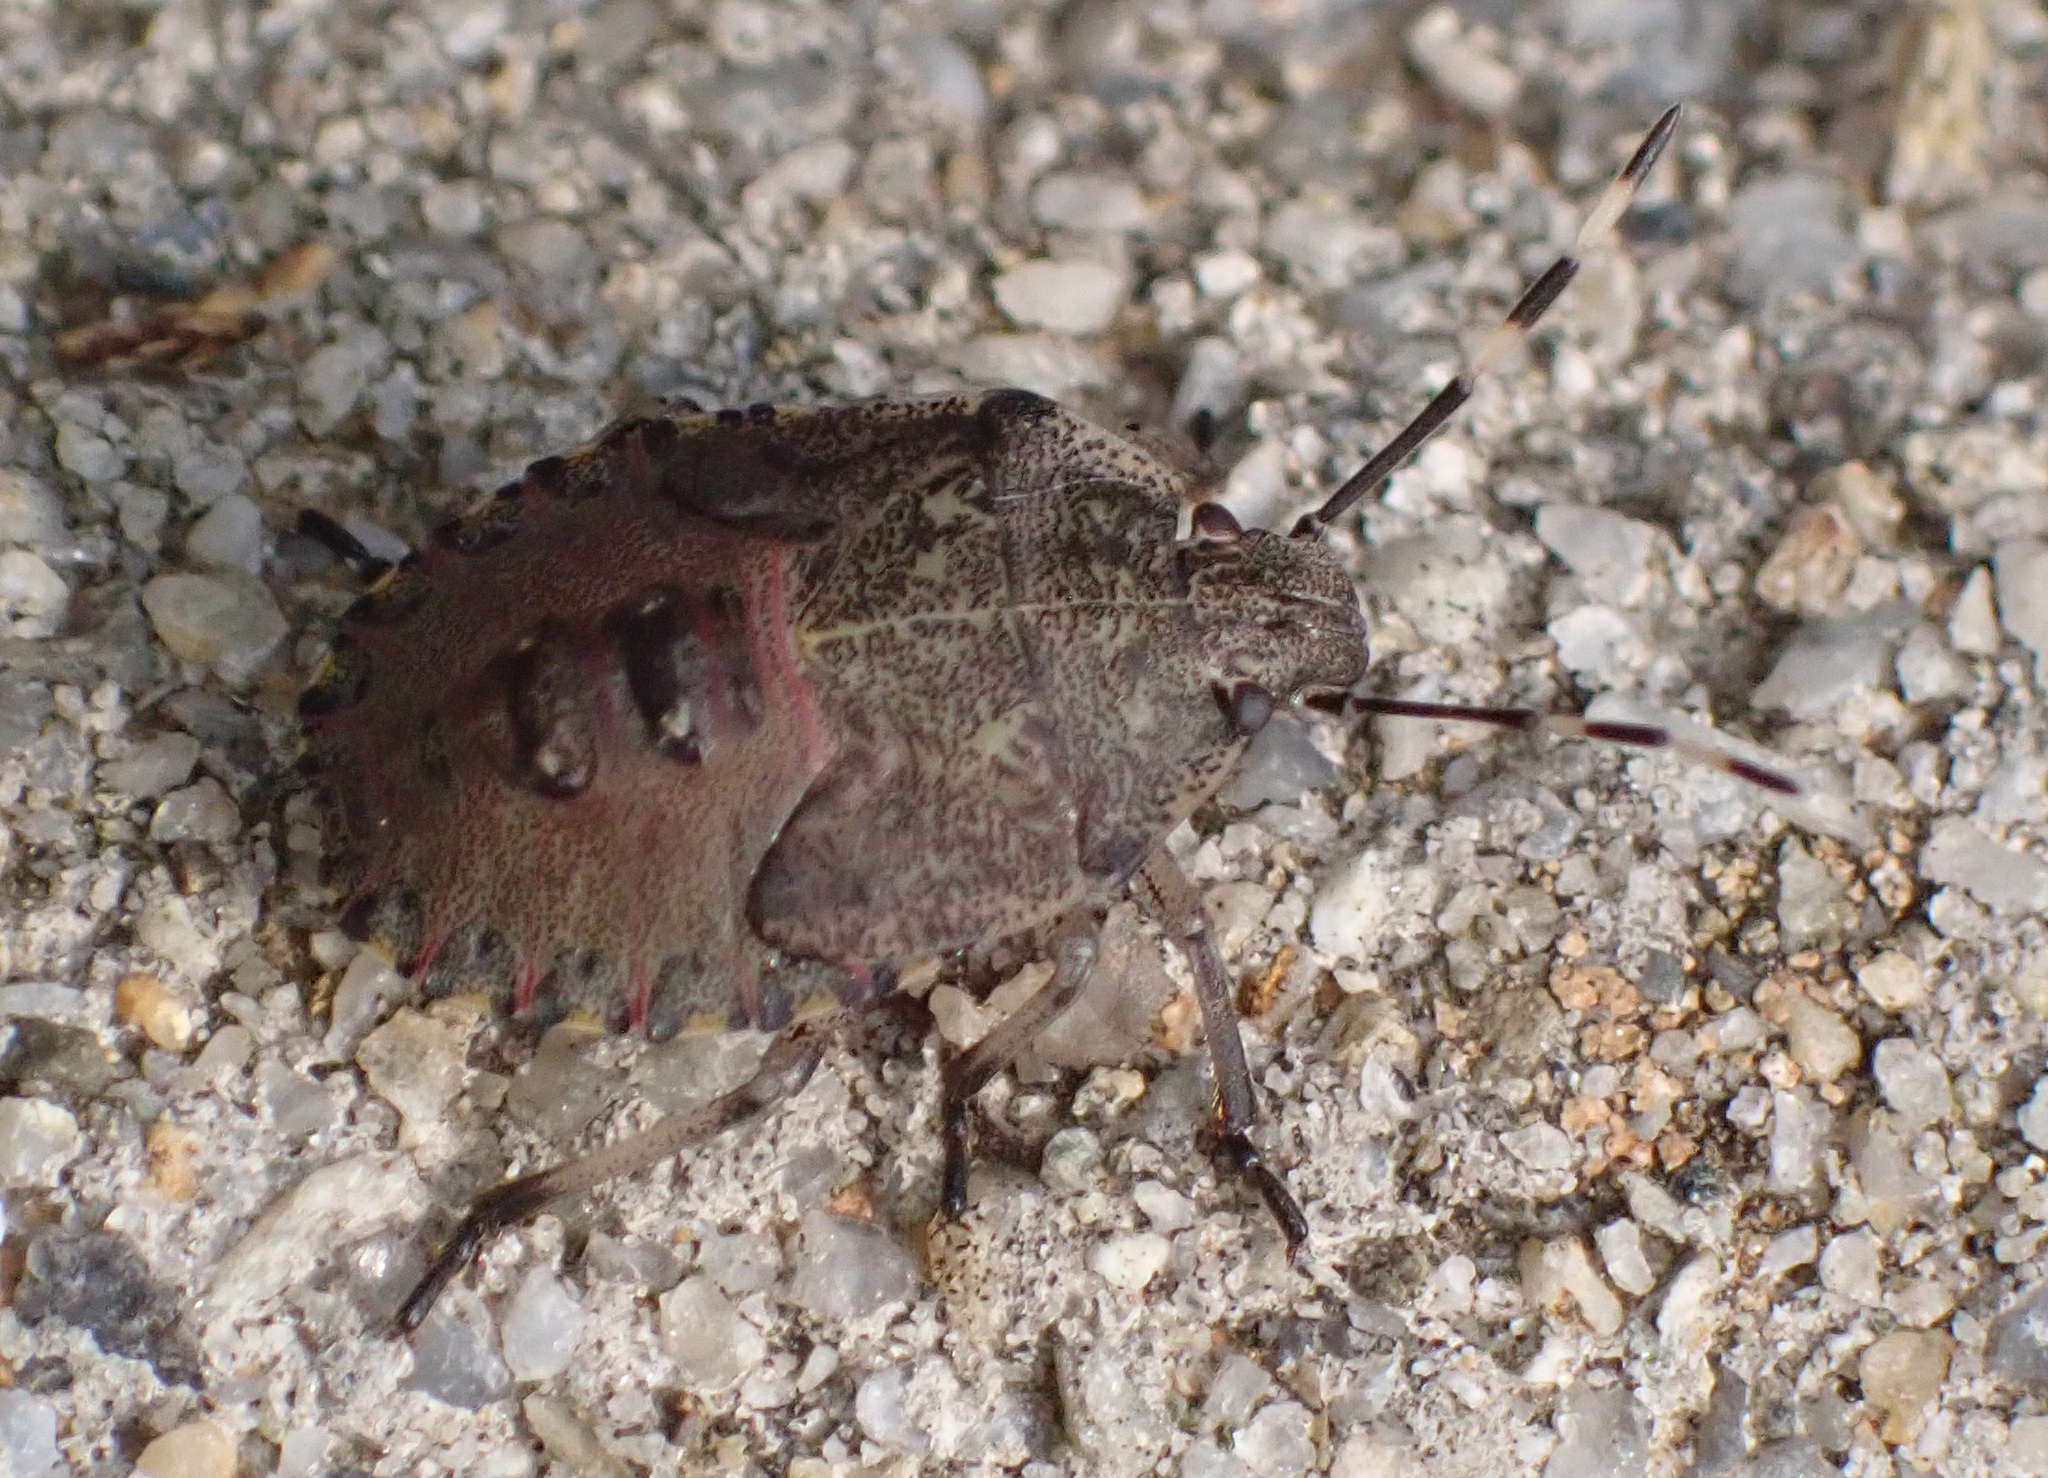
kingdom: Animalia
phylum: Arthropoda
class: Insecta
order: Hemiptera
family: Pentatomidae
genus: Rhaphigaster
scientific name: Rhaphigaster nebulosa
